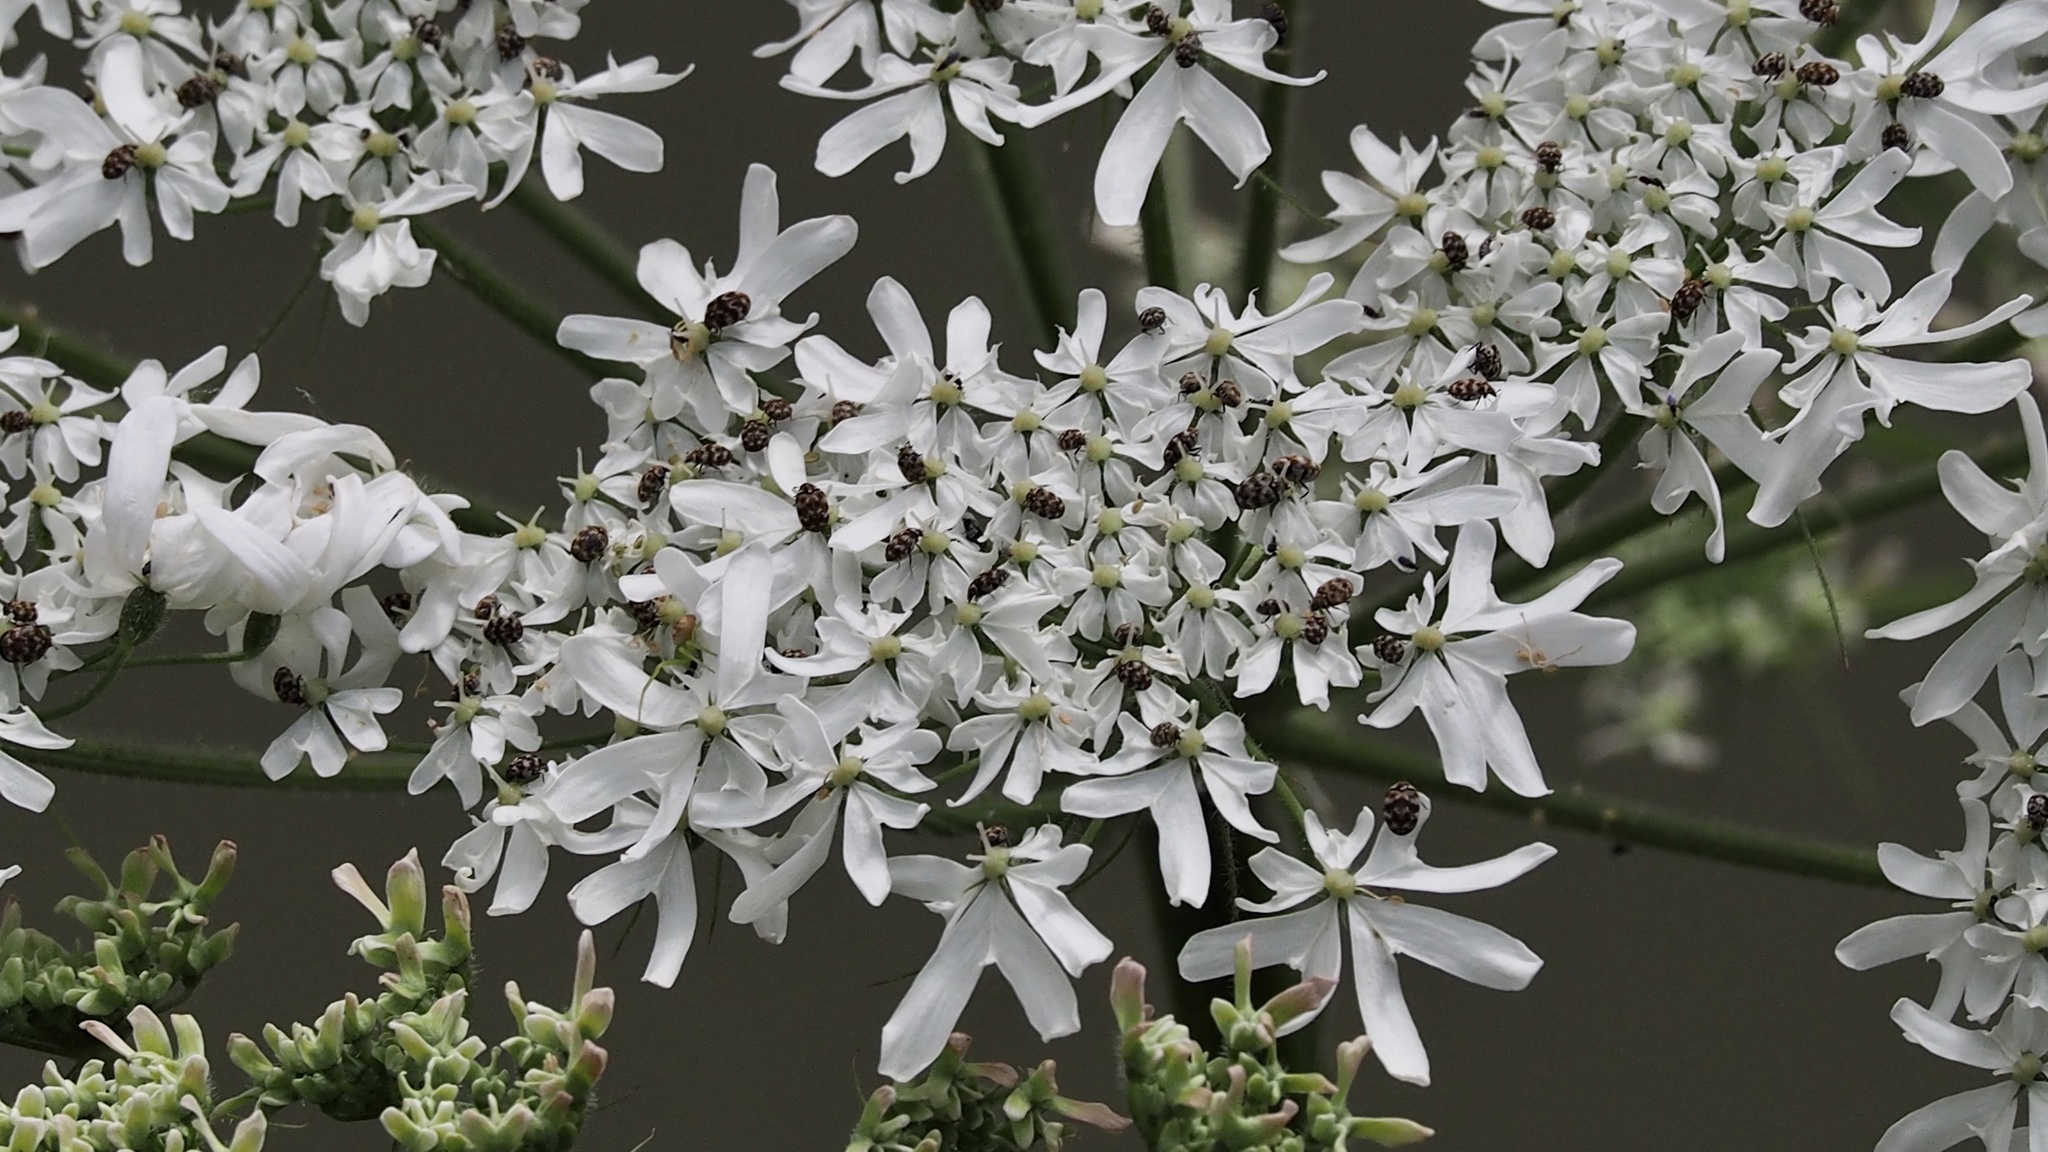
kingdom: Animalia
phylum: Arthropoda
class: Insecta
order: Coleoptera
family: Dermestidae
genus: Anthrenus
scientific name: Anthrenus verbasci
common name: Varied carpet beetle
